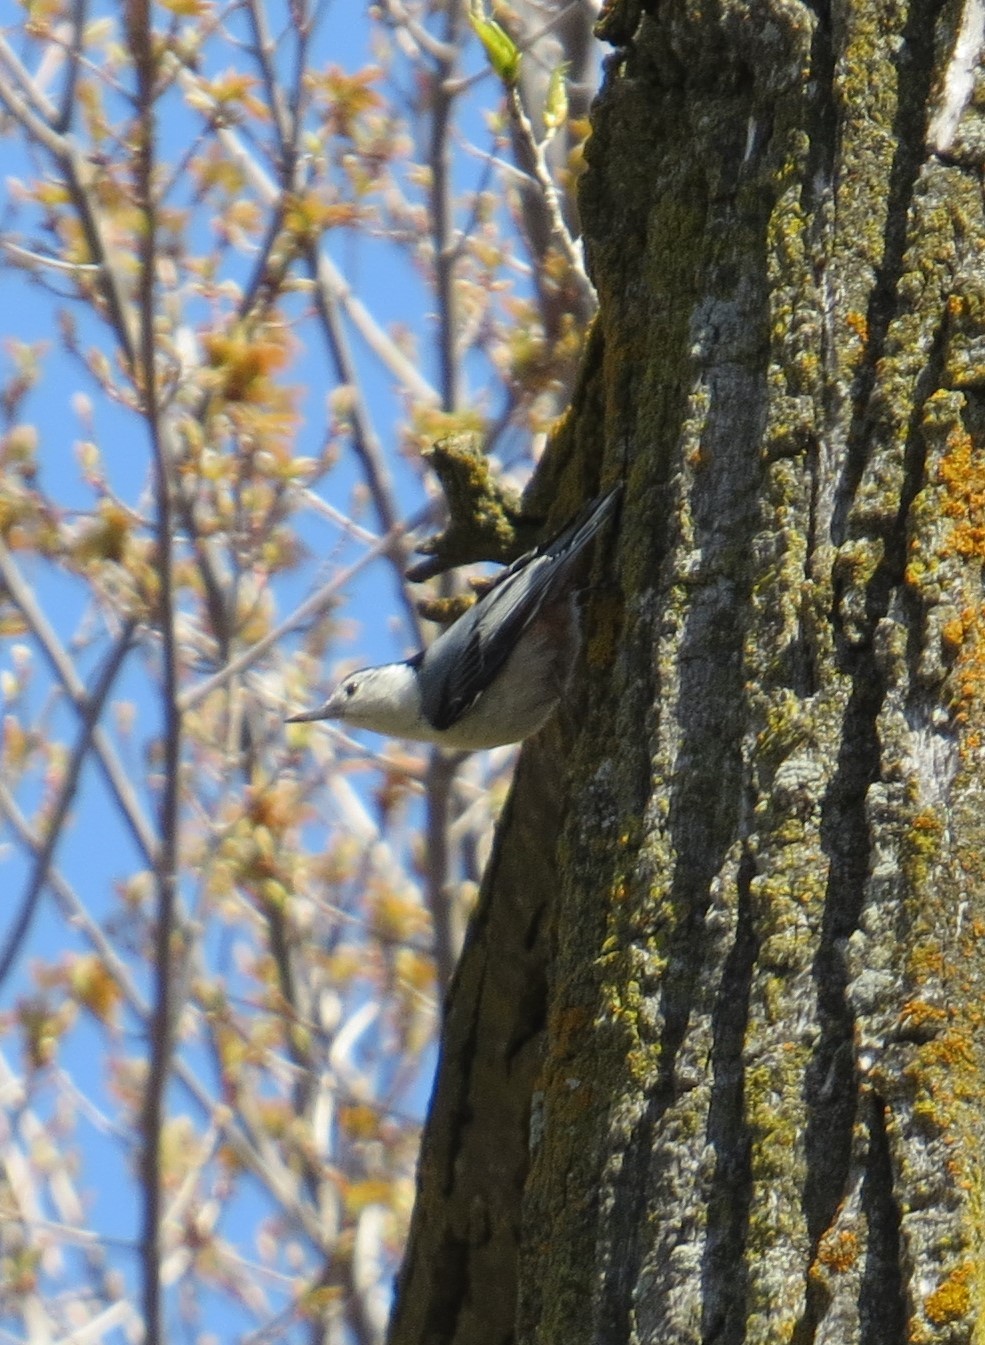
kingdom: Animalia
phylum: Chordata
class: Aves
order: Passeriformes
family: Sittidae
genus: Sitta
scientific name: Sitta carolinensis
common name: White-breasted nuthatch
